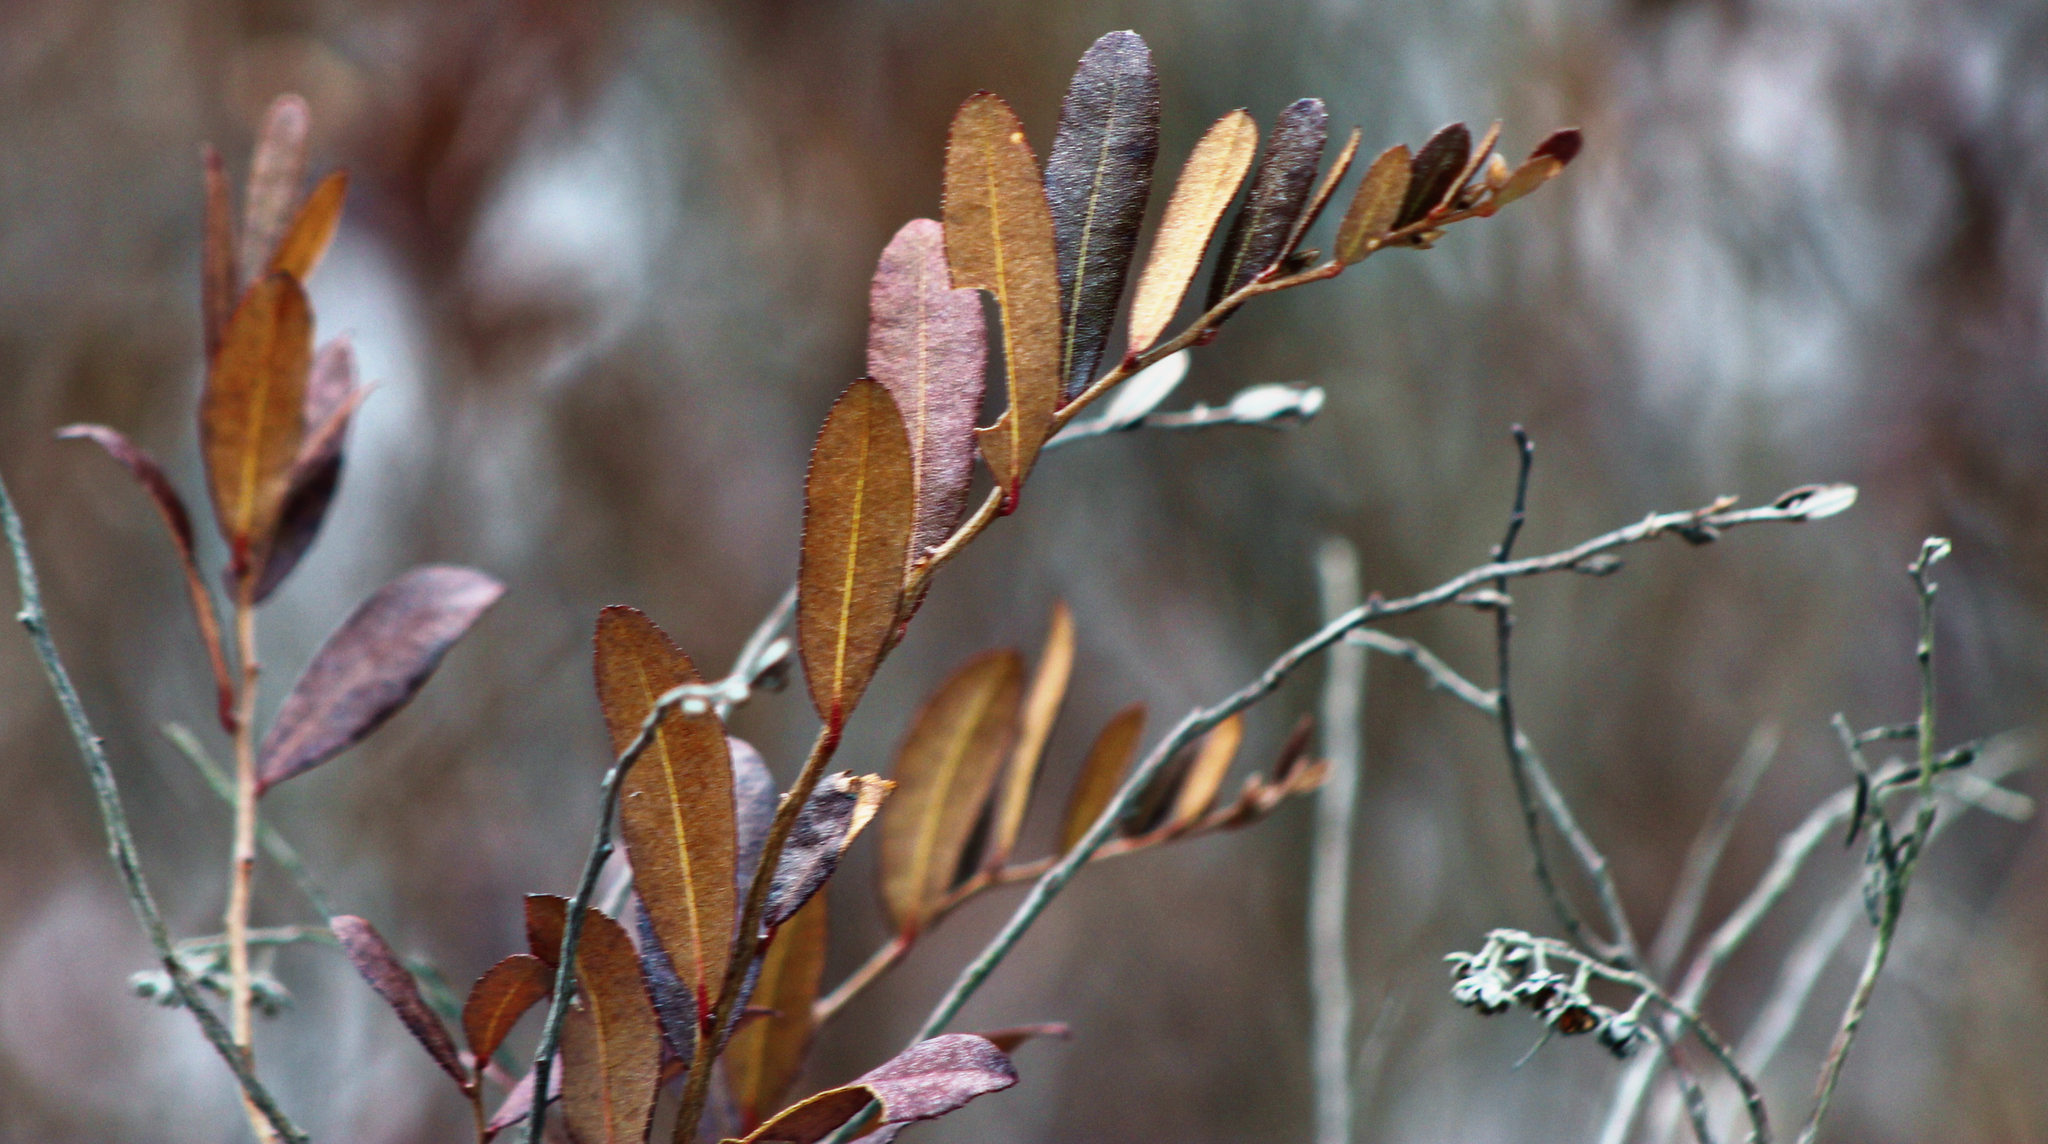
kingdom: Plantae
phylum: Tracheophyta
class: Magnoliopsida
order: Ericales
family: Ericaceae
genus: Chamaedaphne
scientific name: Chamaedaphne calyculata
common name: Leatherleaf
